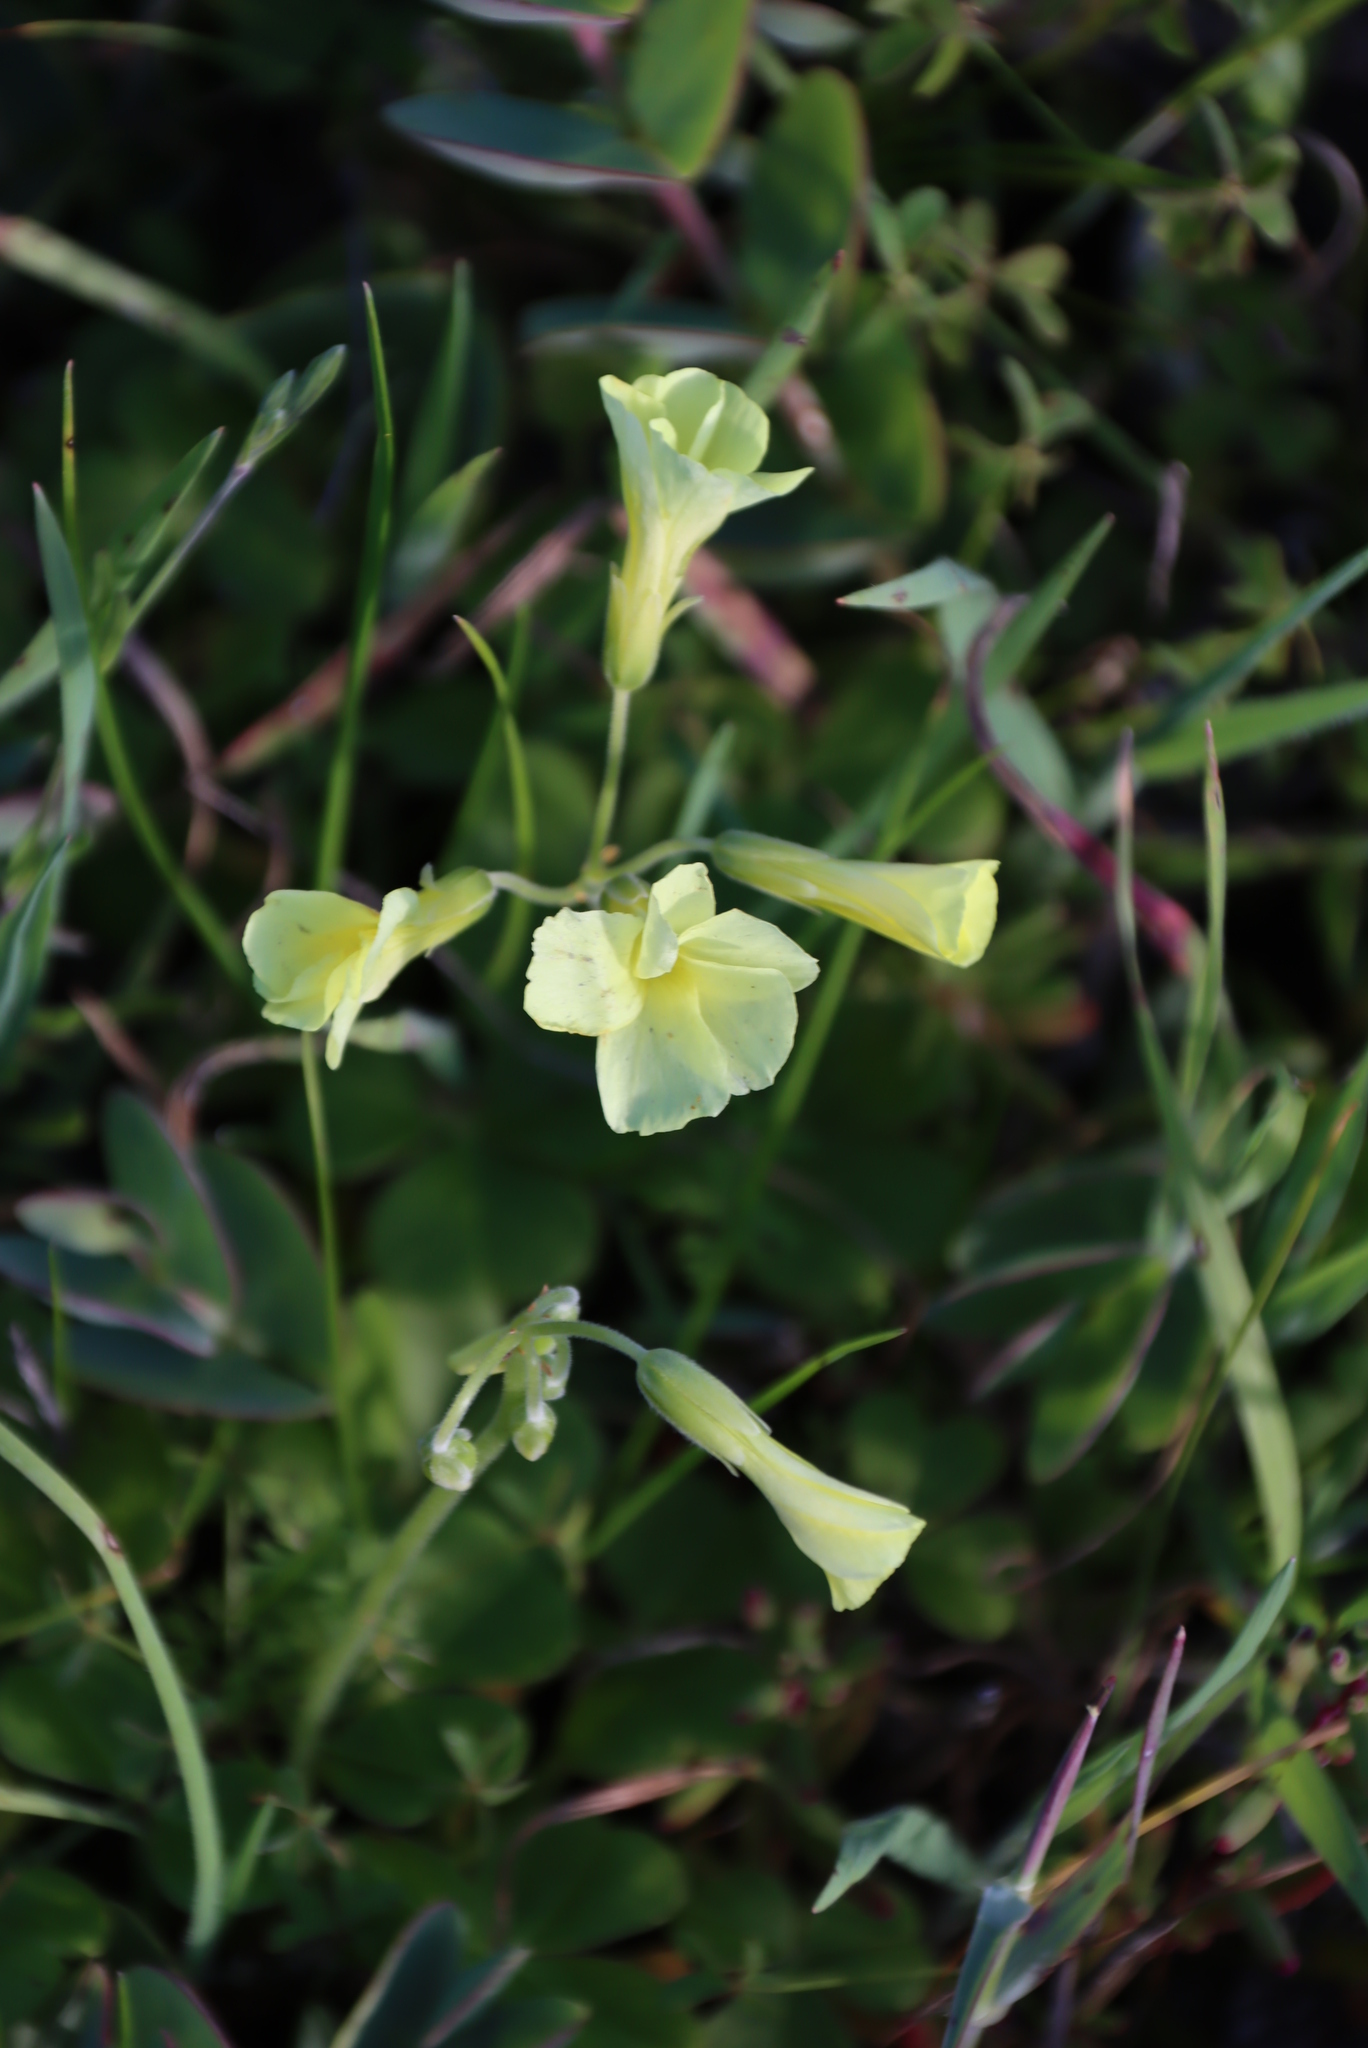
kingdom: Plantae
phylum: Tracheophyta
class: Magnoliopsida
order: Oxalidales
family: Oxalidaceae
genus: Oxalis
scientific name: Oxalis pes-caprae
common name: Bermuda-buttercup
